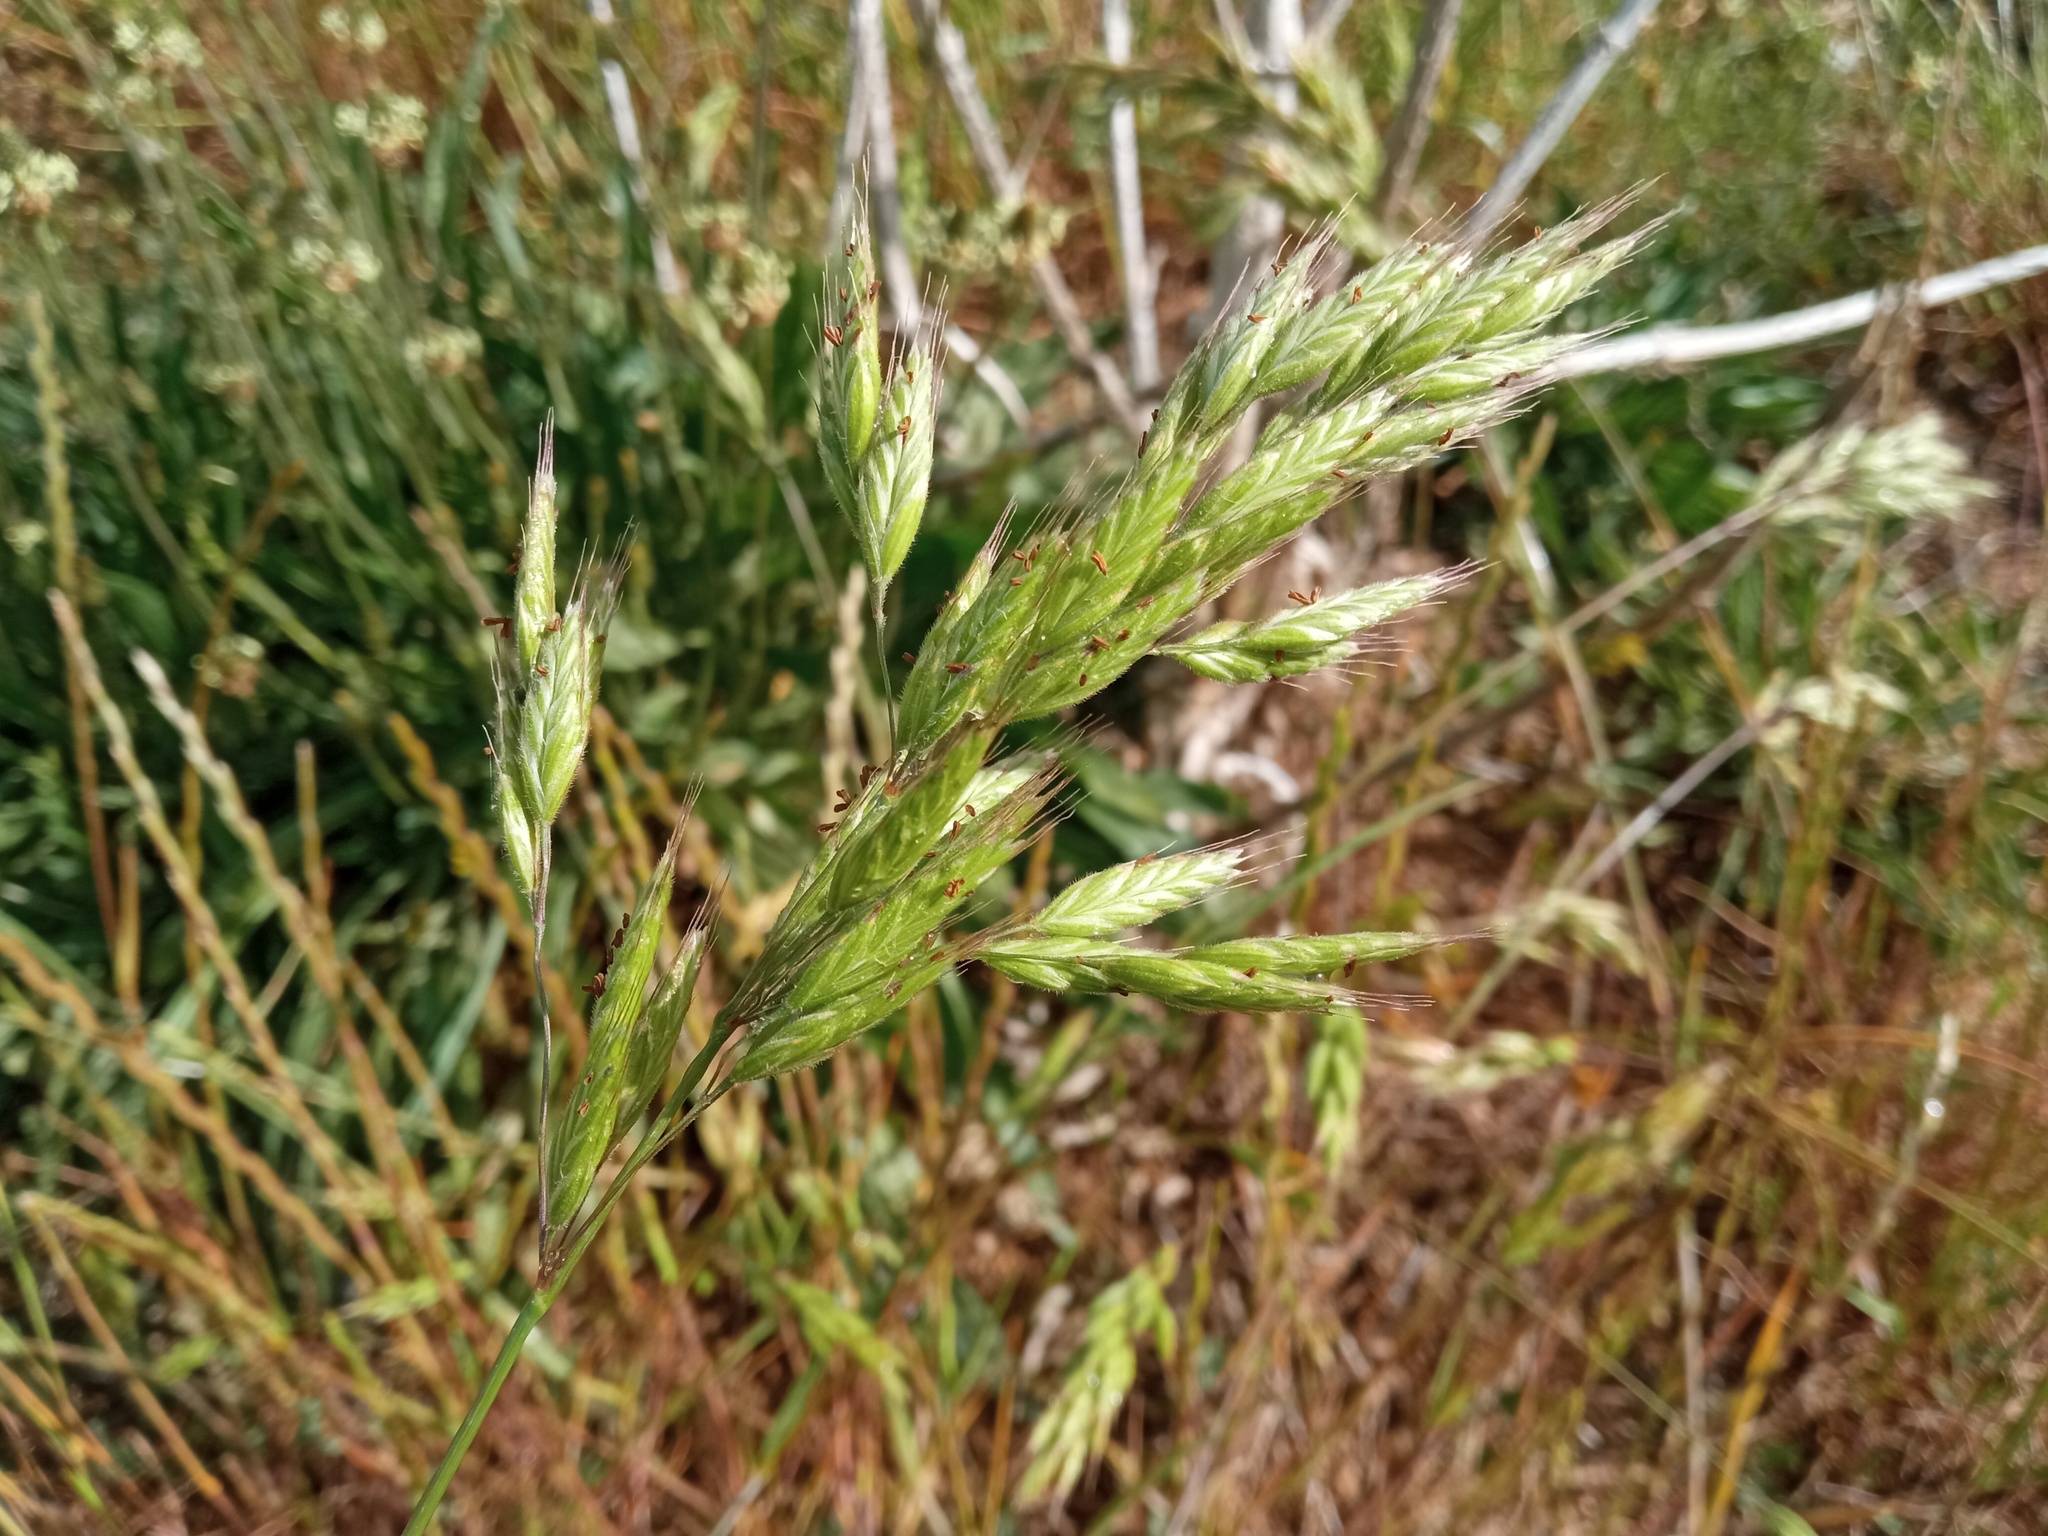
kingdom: Plantae
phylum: Tracheophyta
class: Liliopsida
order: Poales
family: Poaceae
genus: Bromus
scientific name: Bromus hordeaceus
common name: Soft brome
